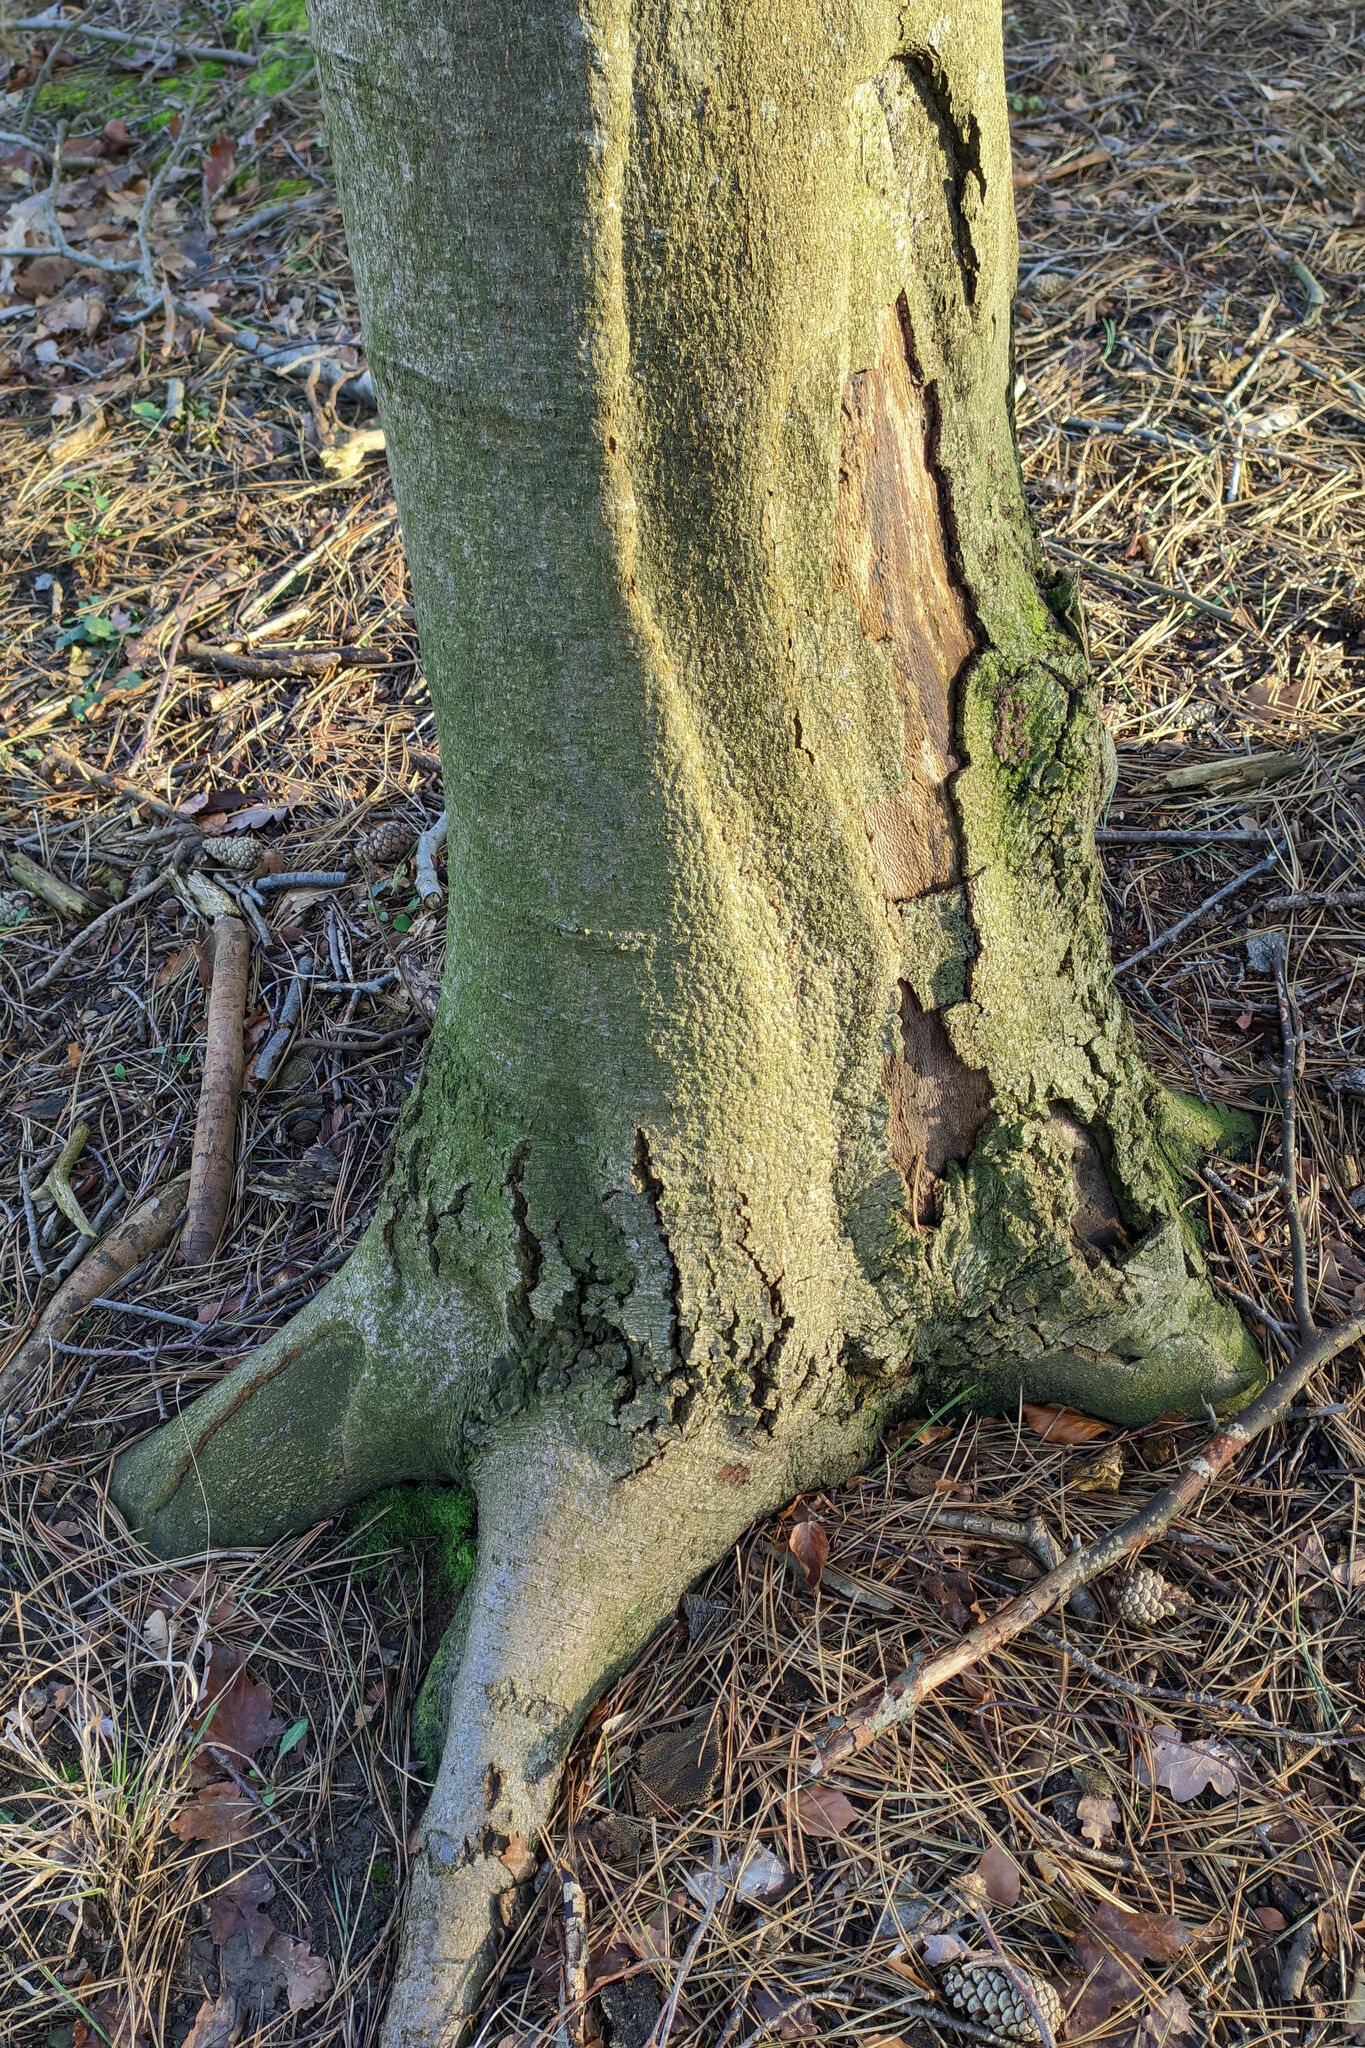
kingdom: Plantae
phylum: Tracheophyta
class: Magnoliopsida
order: Fagales
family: Fagaceae
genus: Fagus
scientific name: Fagus sylvatica
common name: Beech
